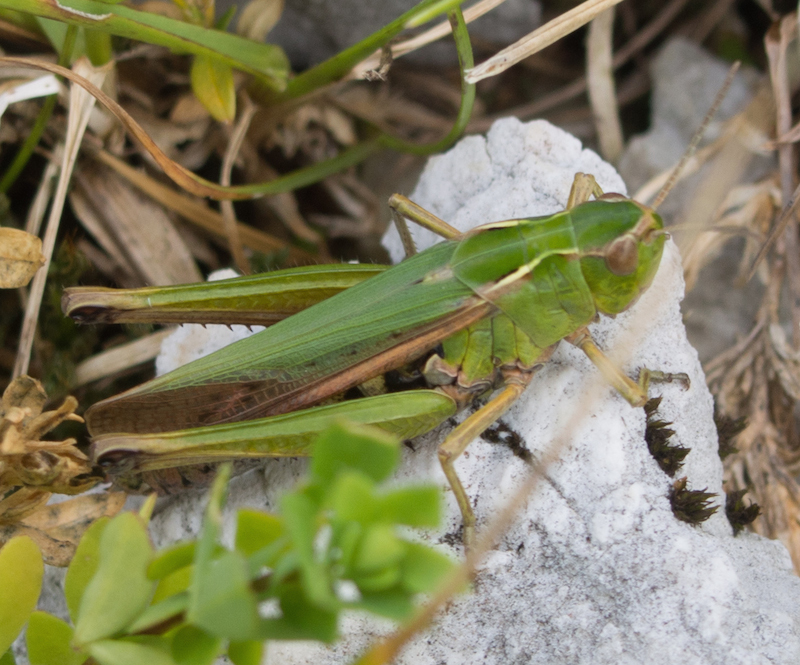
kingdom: Animalia
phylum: Arthropoda
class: Insecta
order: Orthoptera
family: Acrididae
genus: Omocestus
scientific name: Omocestus viridulus
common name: Common green grasshopper
